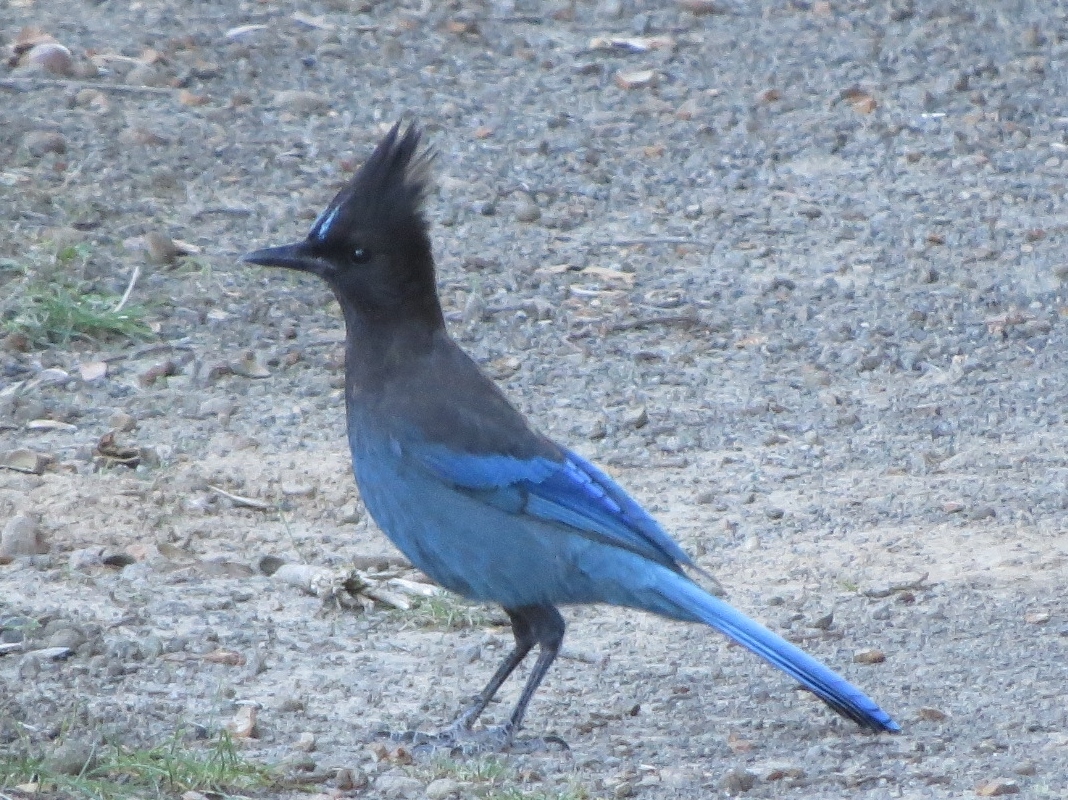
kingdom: Animalia
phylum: Chordata
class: Aves
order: Passeriformes
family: Corvidae
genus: Cyanocitta
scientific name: Cyanocitta stelleri
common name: Steller's jay
